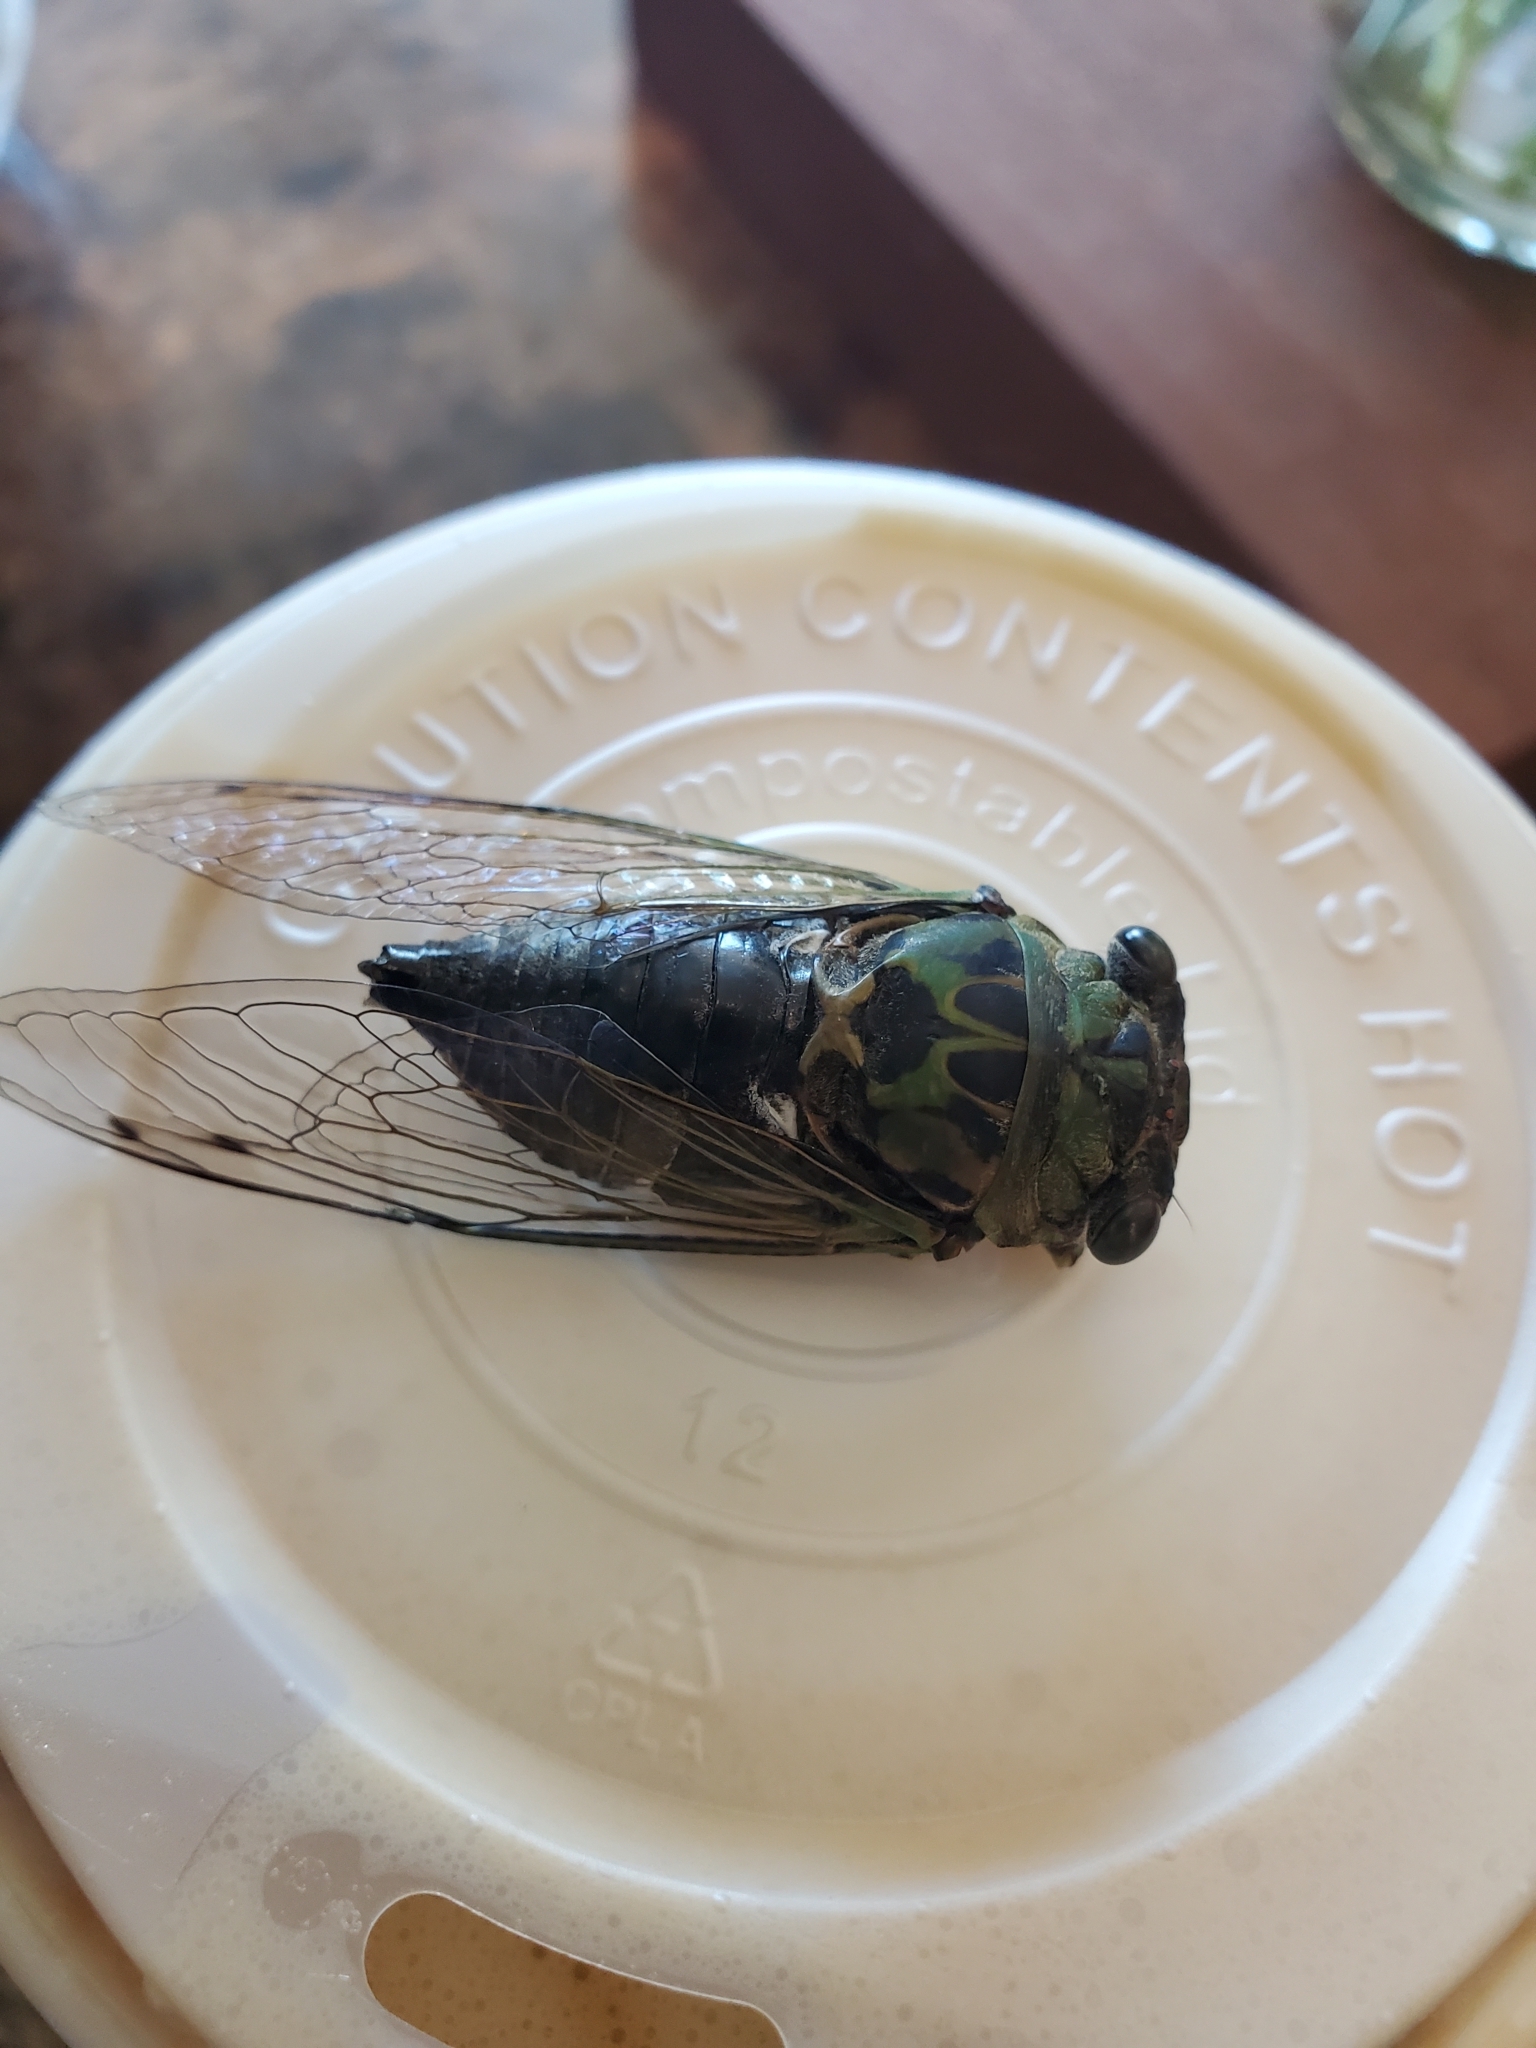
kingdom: Animalia
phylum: Arthropoda
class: Insecta
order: Hemiptera
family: Cicadidae
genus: Neotibicen
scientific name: Neotibicen pruinosus
